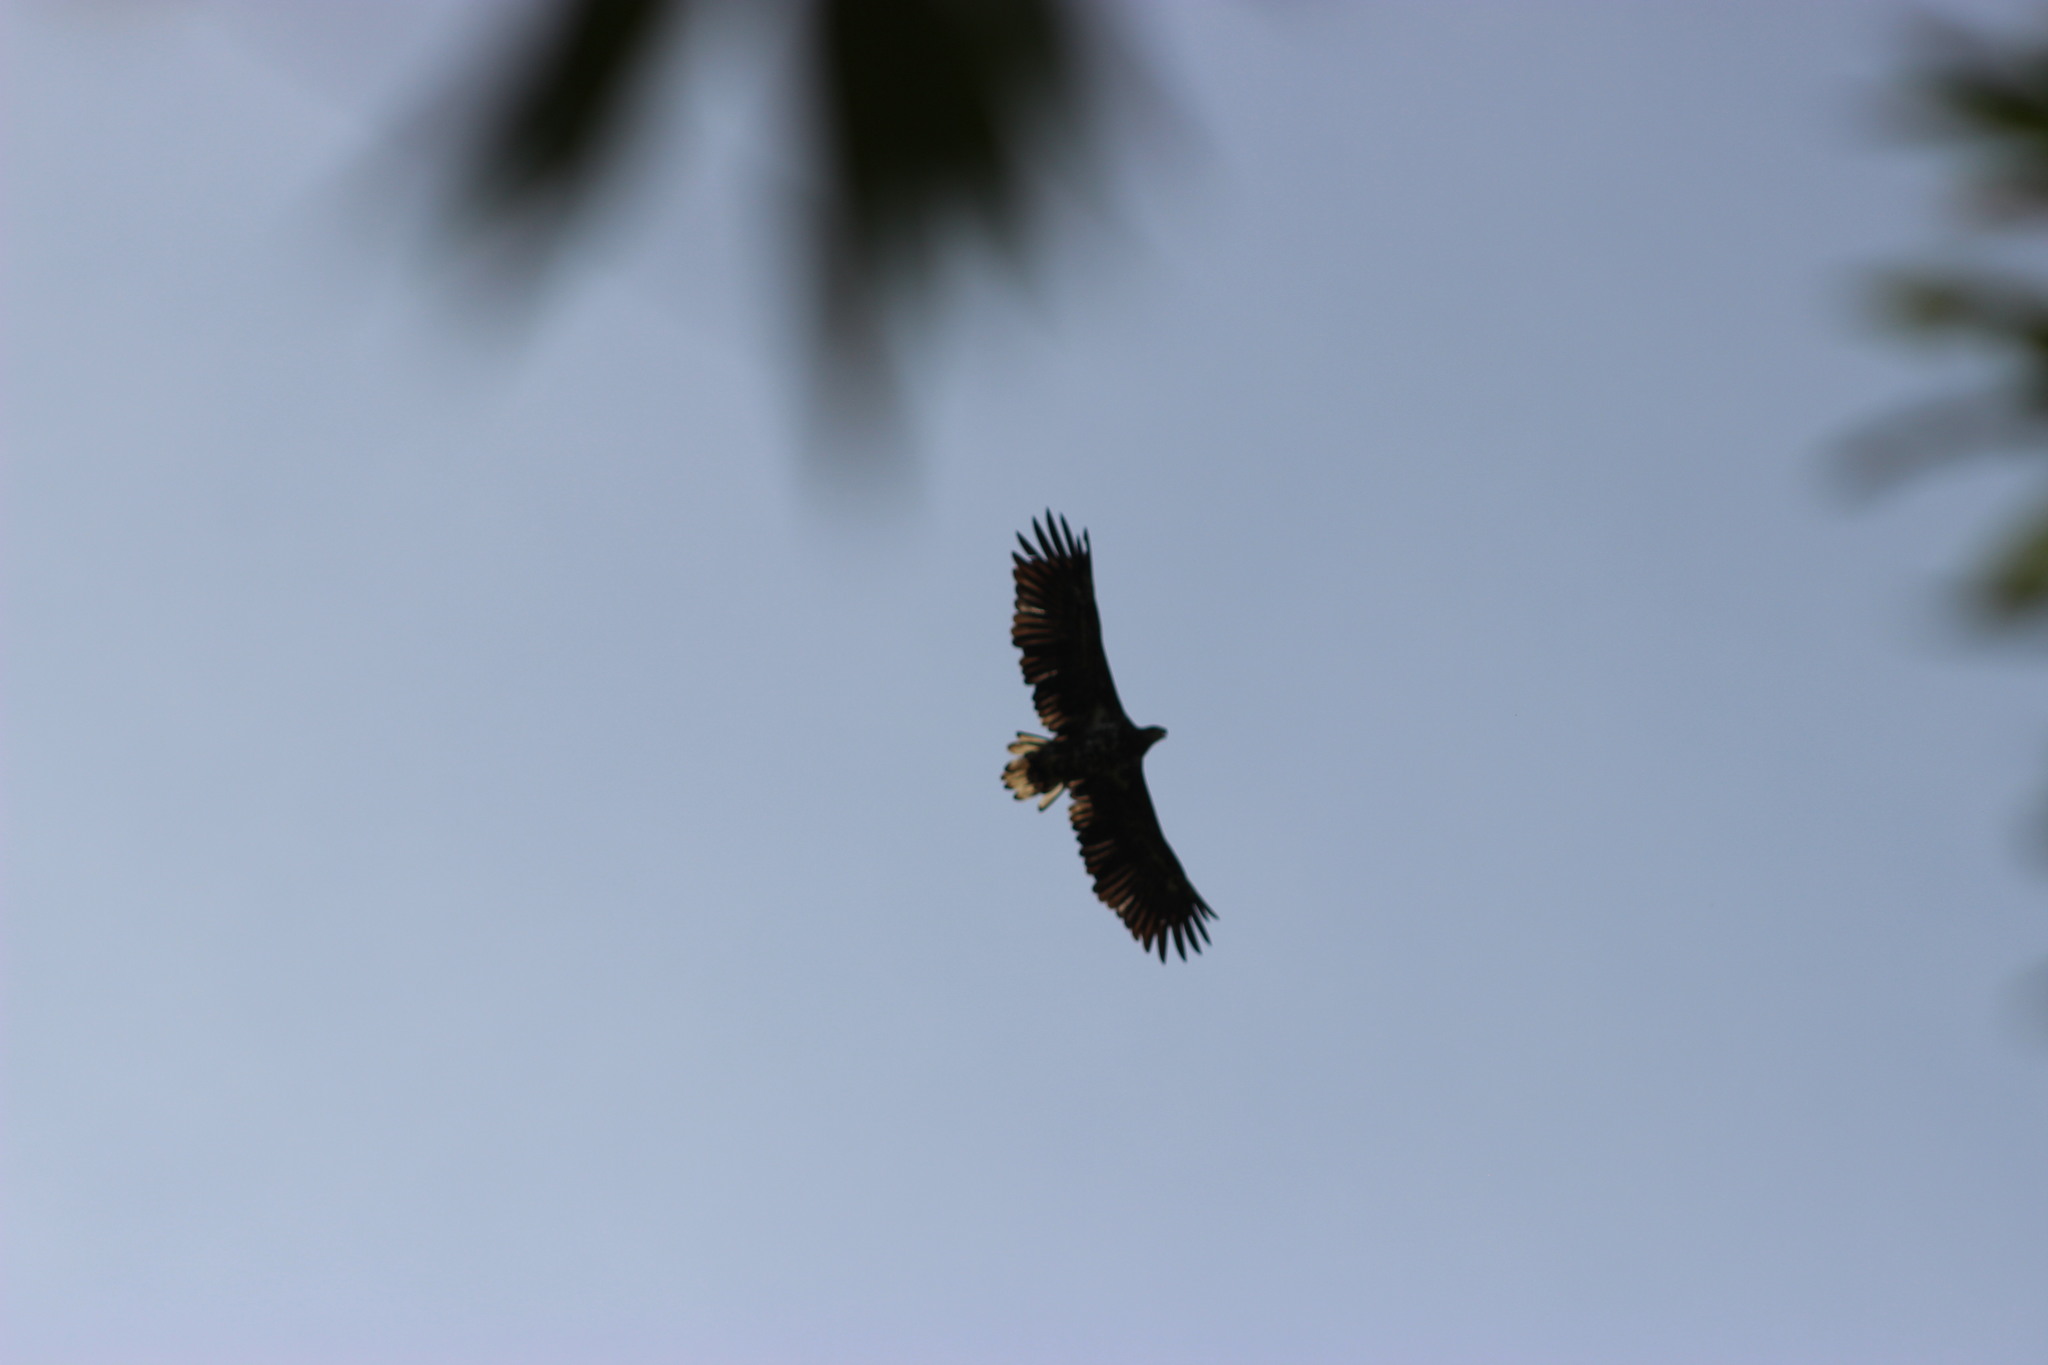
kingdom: Animalia
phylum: Chordata
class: Aves
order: Accipitriformes
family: Accipitridae
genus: Haliaeetus
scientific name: Haliaeetus albicilla
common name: White-tailed eagle
